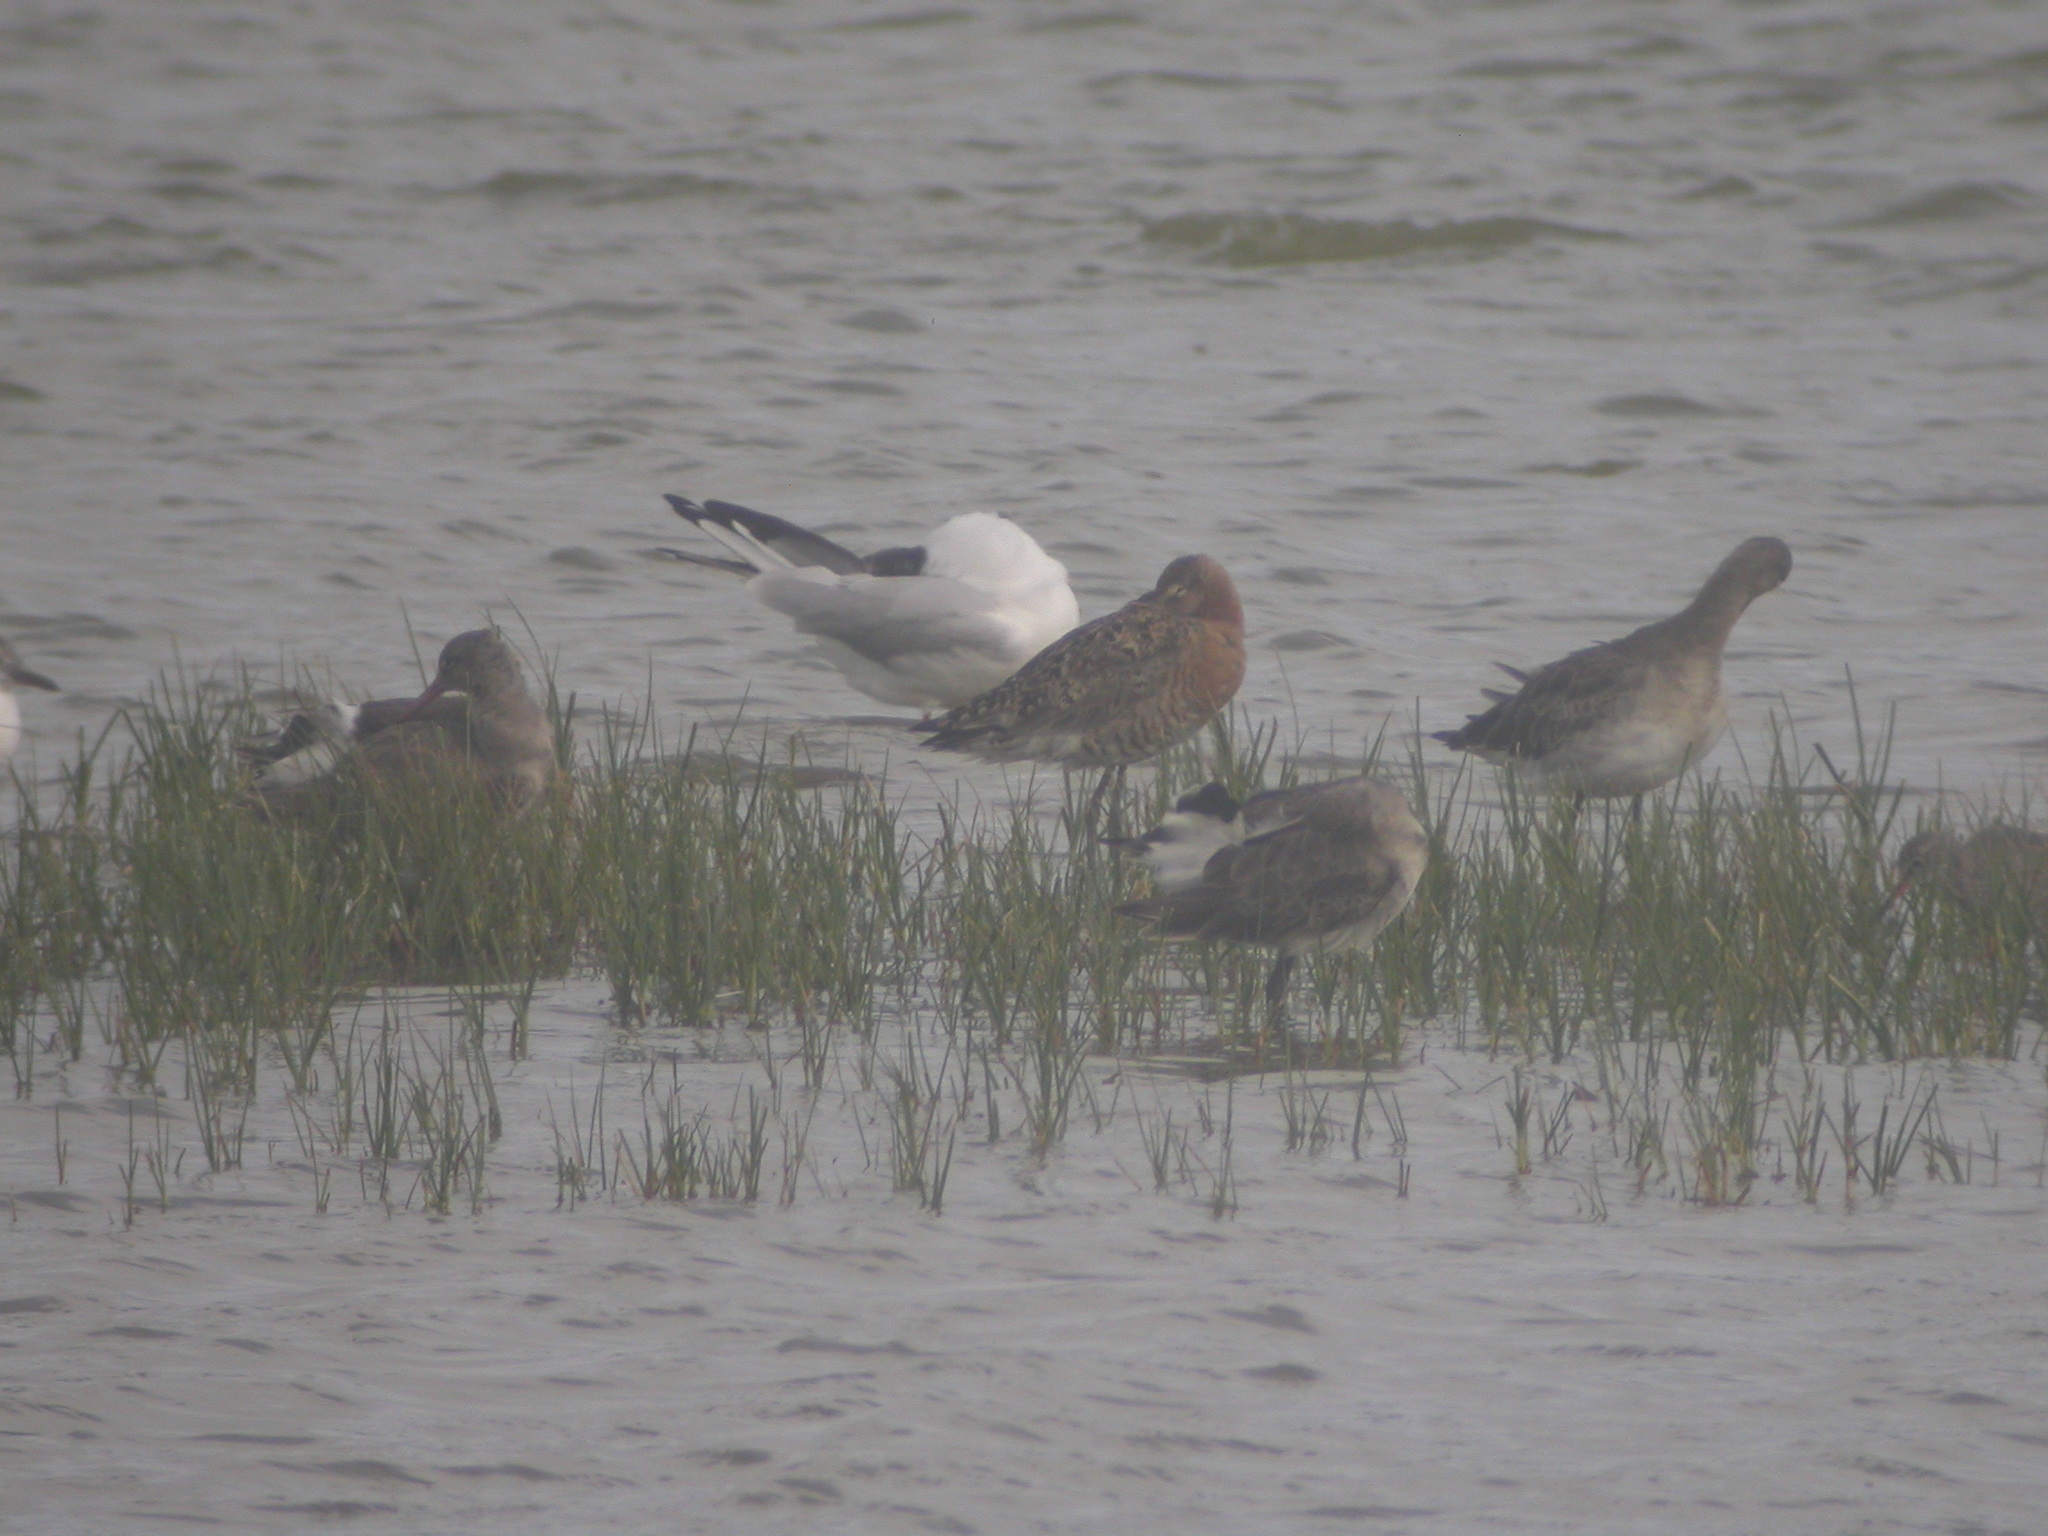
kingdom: Animalia
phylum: Chordata
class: Aves
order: Charadriiformes
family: Scolopacidae
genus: Limosa
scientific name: Limosa lapponica
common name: Bar-tailed godwit
